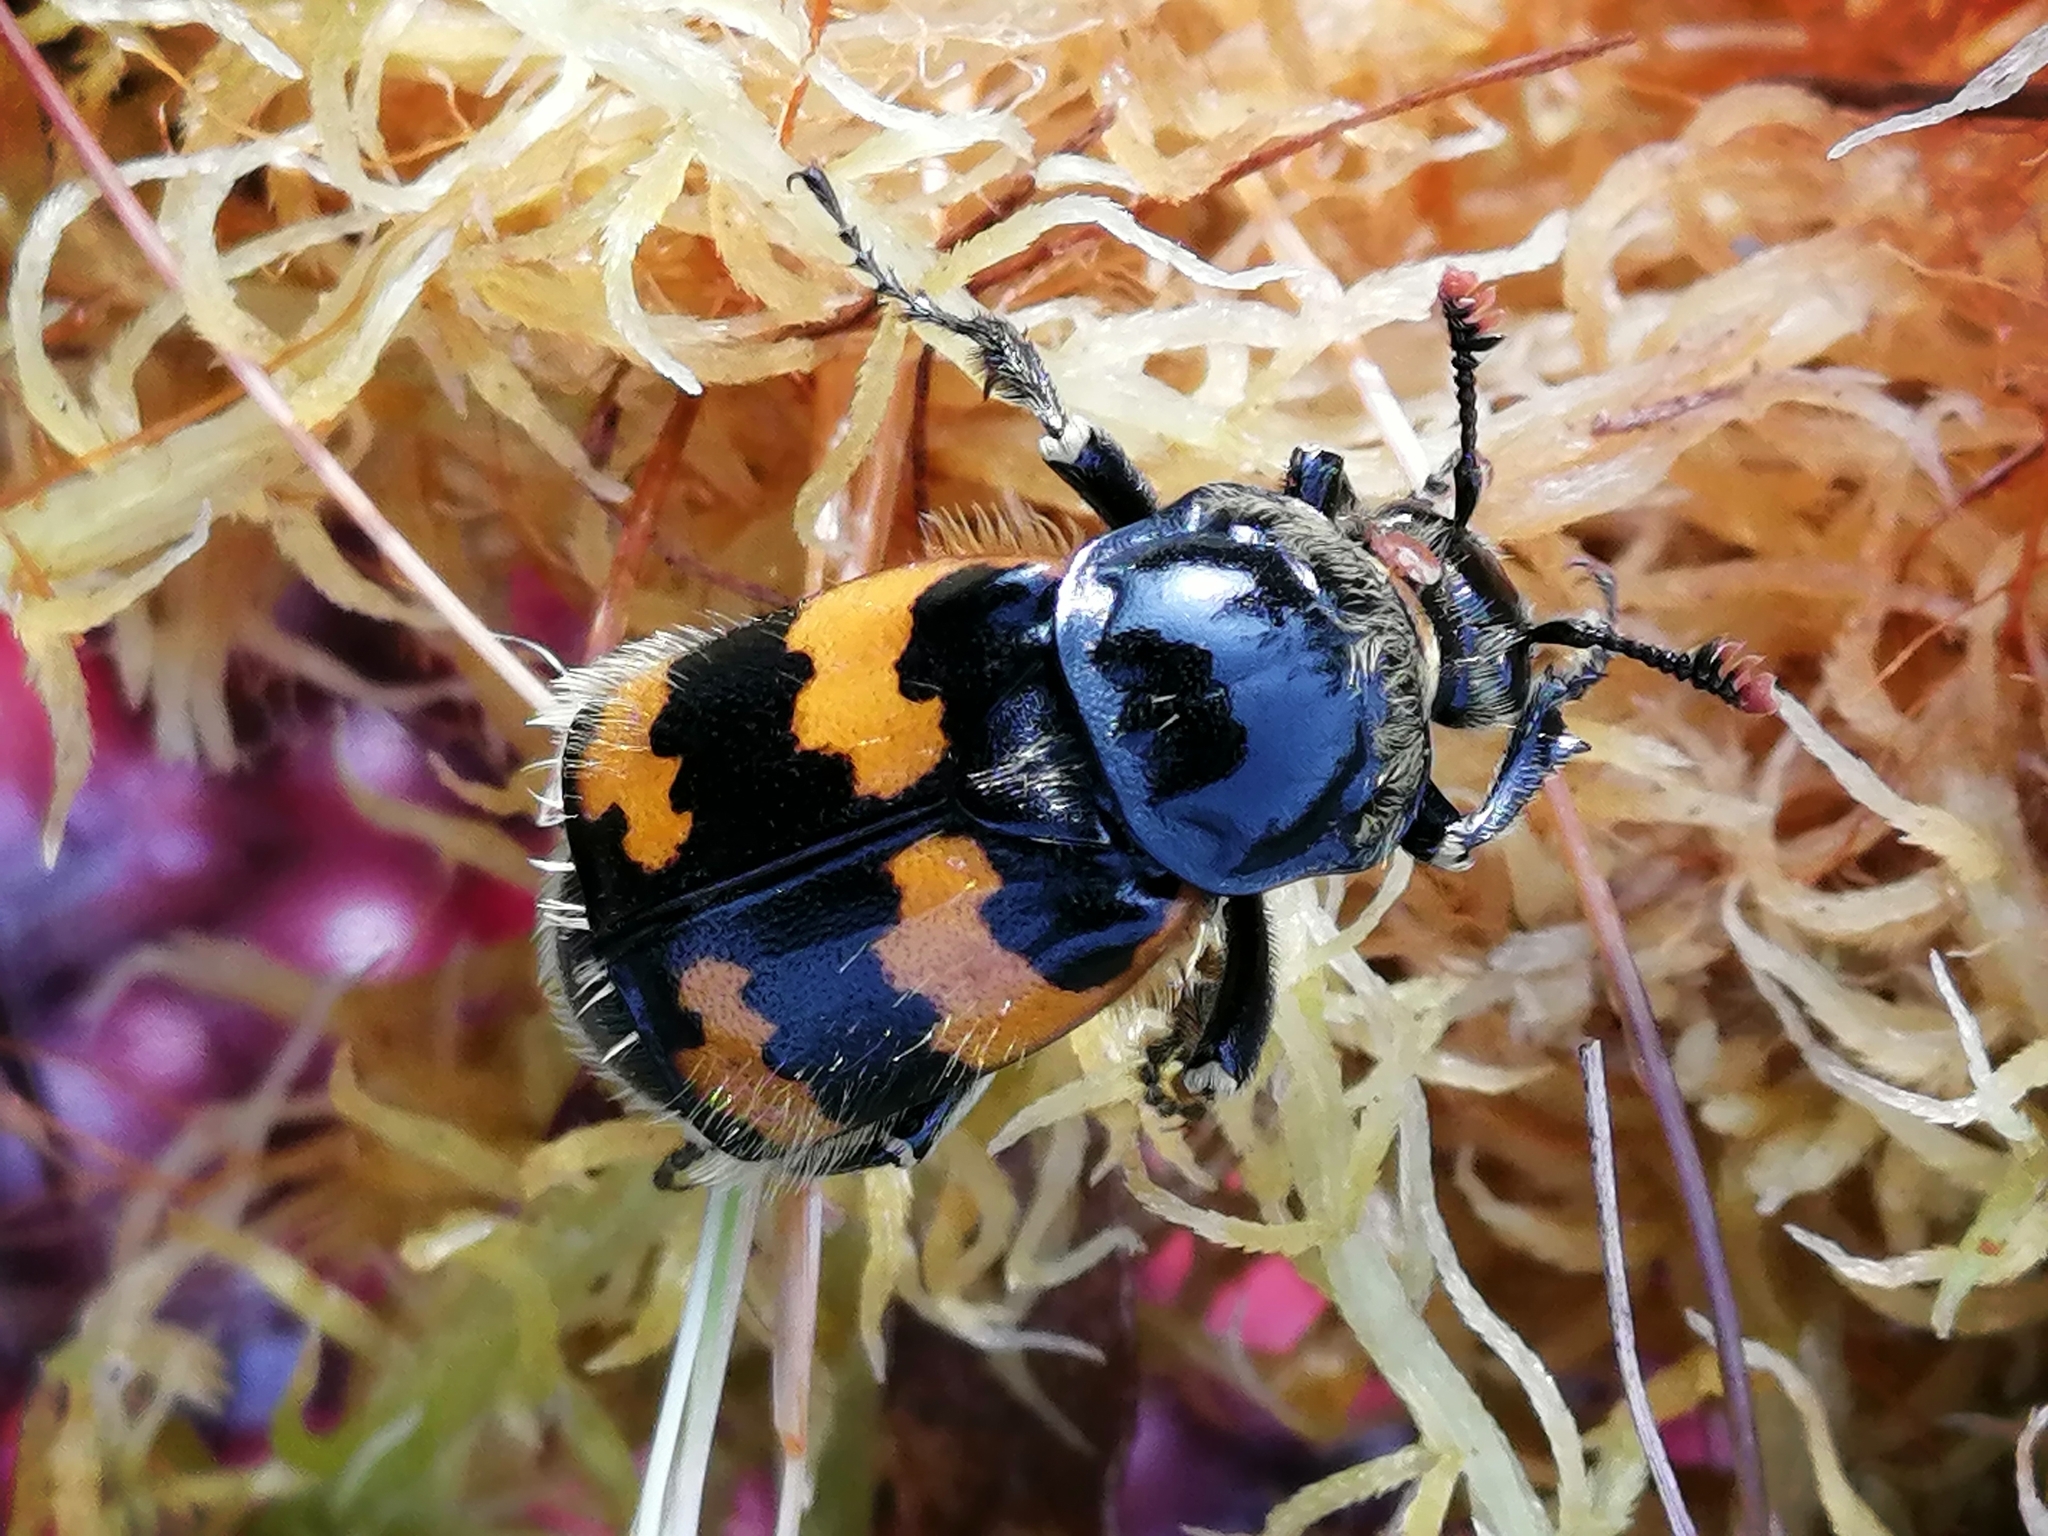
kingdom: Animalia
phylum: Arthropoda
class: Insecta
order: Coleoptera
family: Staphylinidae
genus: Nicrophorus
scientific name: Nicrophorus vespillo
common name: Common burying beetle
